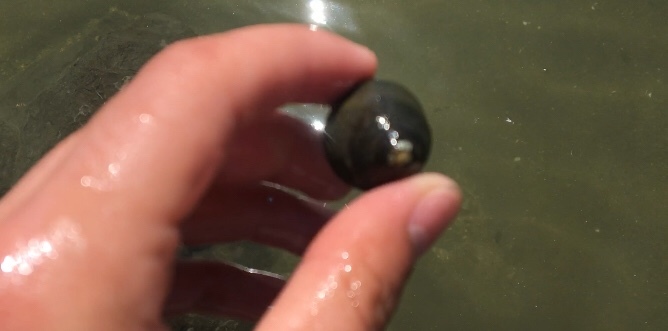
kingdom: Animalia
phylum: Mollusca
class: Gastropoda
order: Trochida
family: Tegulidae
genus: Tegula
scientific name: Tegula funebralis
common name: Black tegula
